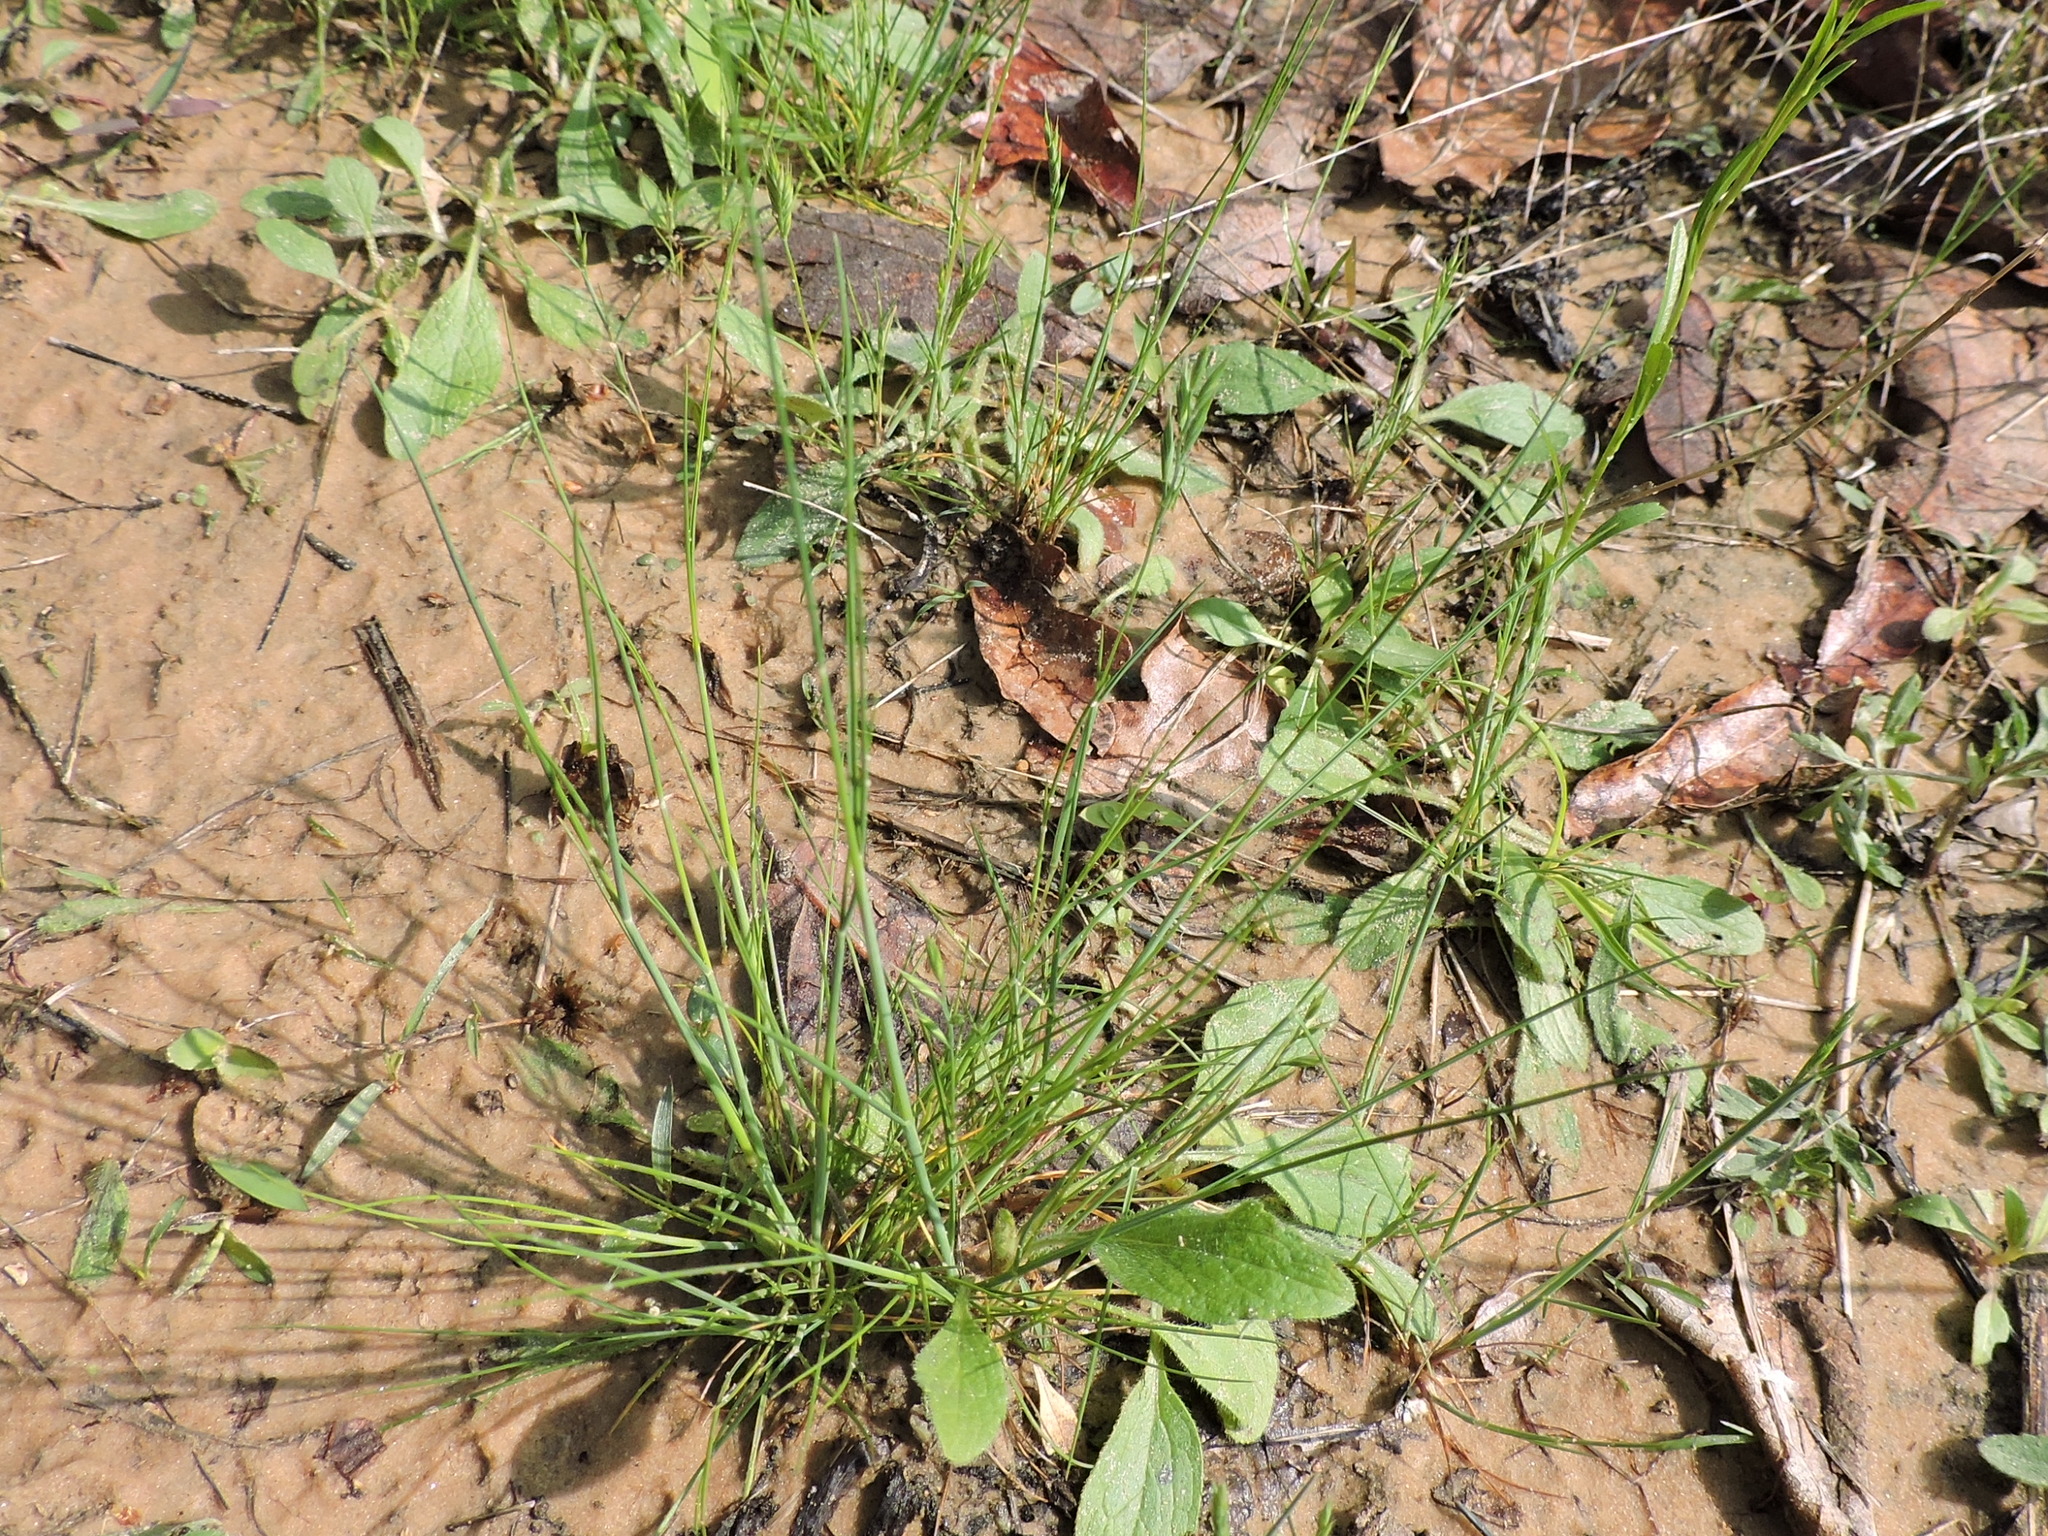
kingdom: Plantae
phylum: Tracheophyta
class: Liliopsida
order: Poales
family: Poaceae
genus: Festuca
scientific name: Festuca octoflora
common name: Sixweeks grass
